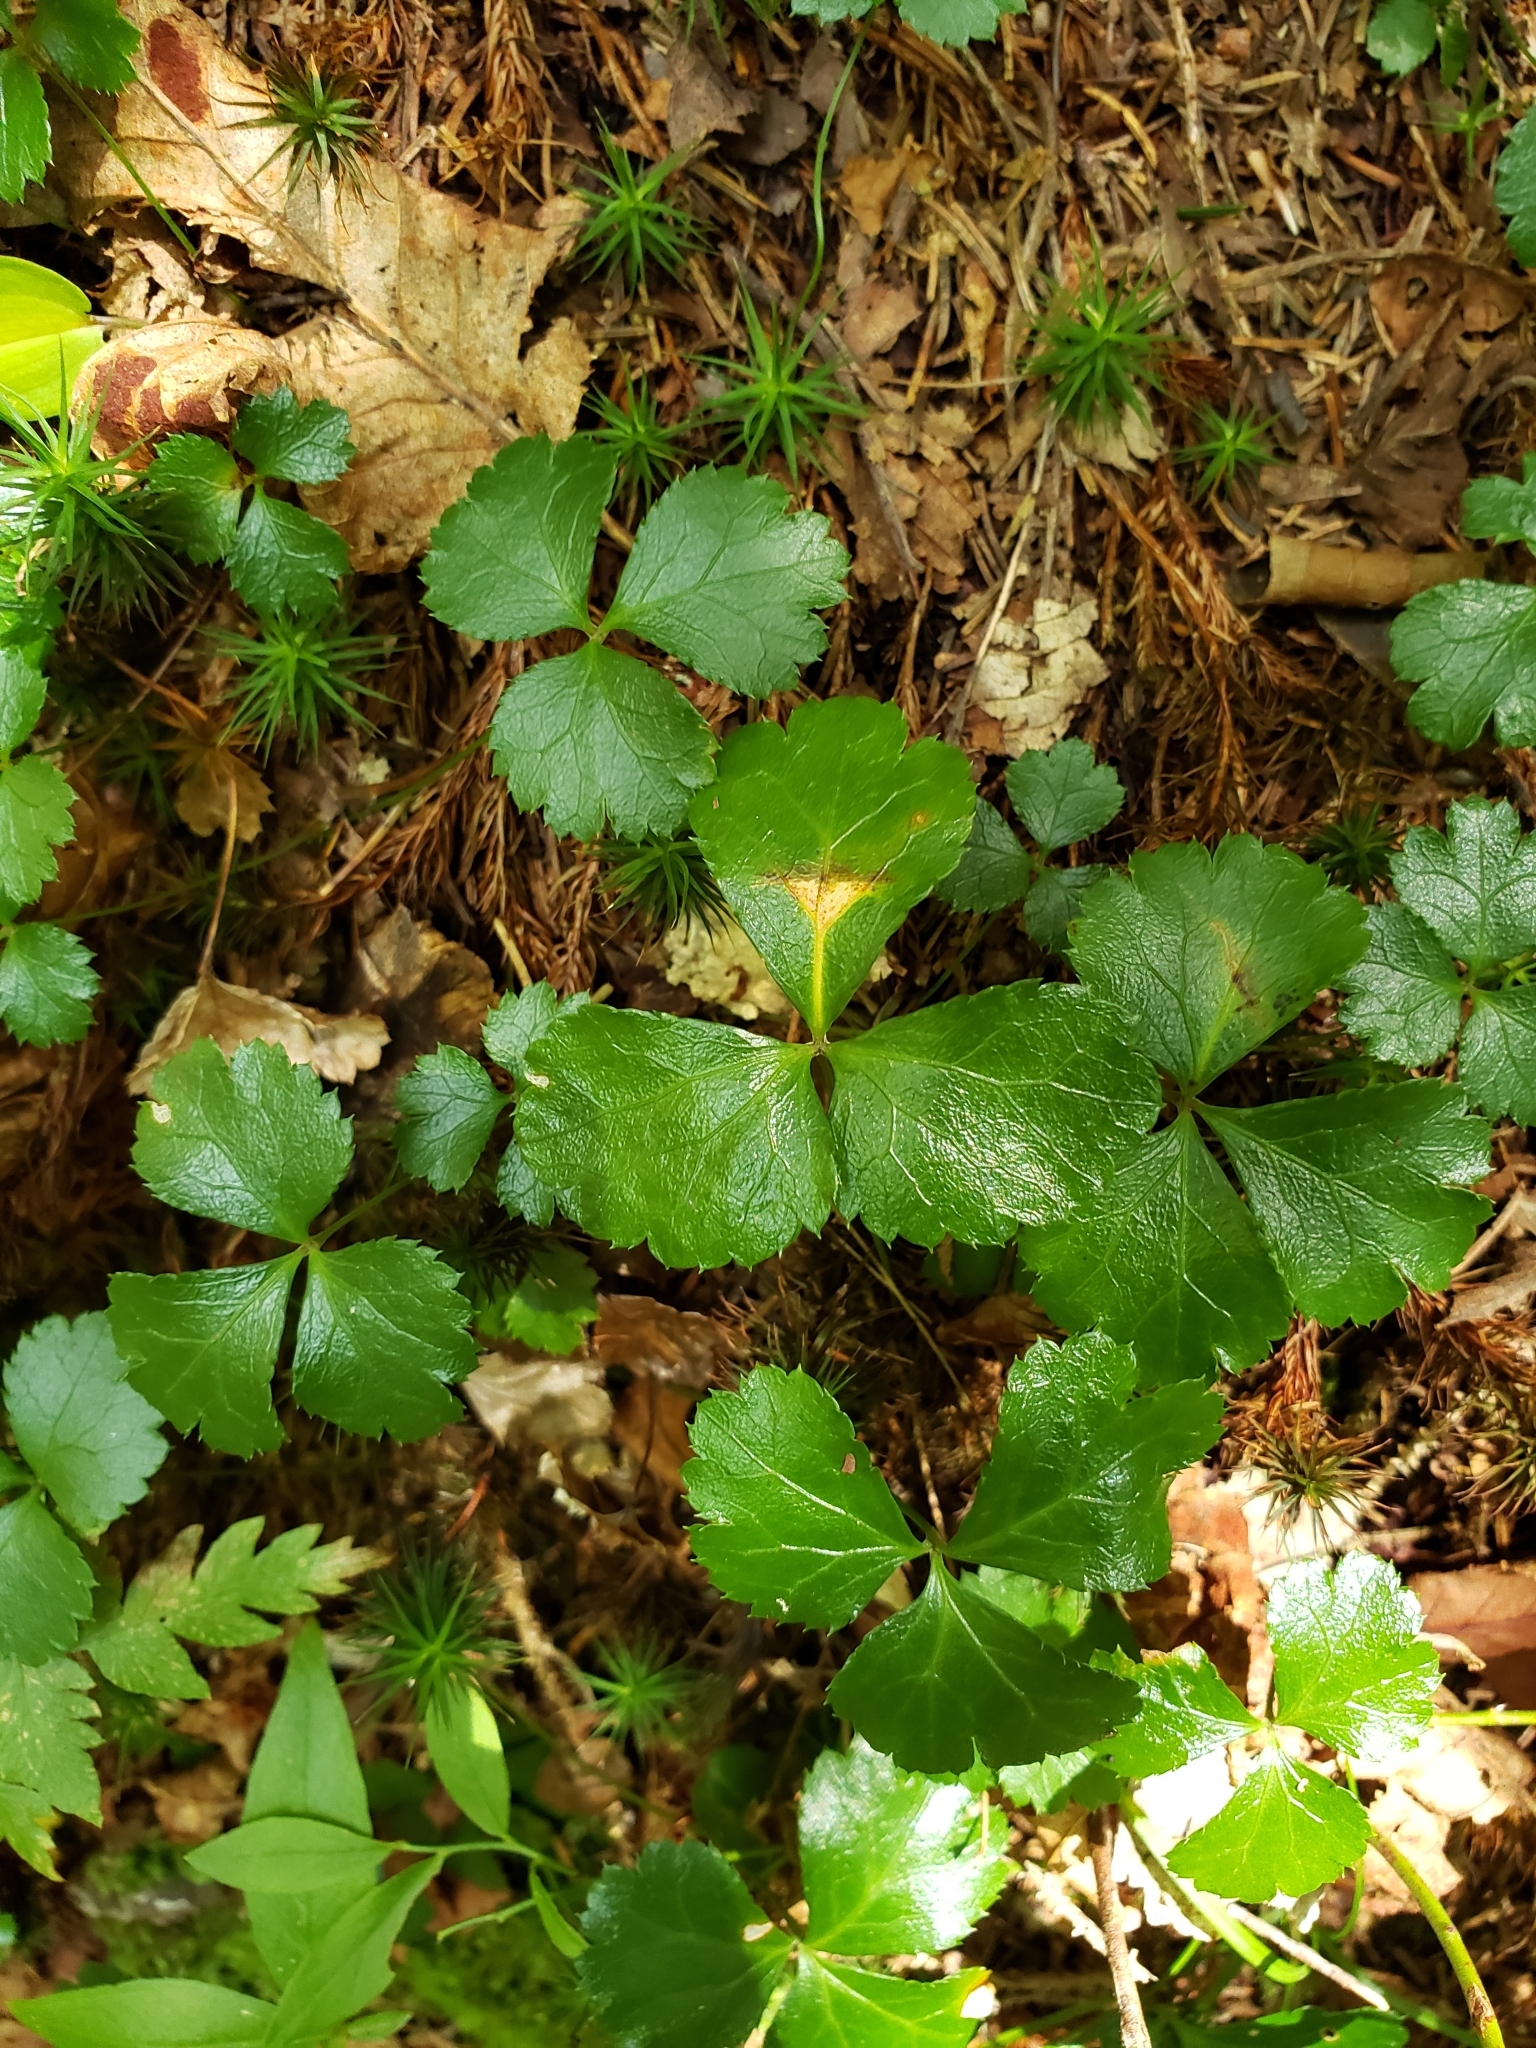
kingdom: Plantae
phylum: Tracheophyta
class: Magnoliopsida
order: Ranunculales
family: Ranunculaceae
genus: Coptis
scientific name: Coptis trifolia
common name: Canker-root
